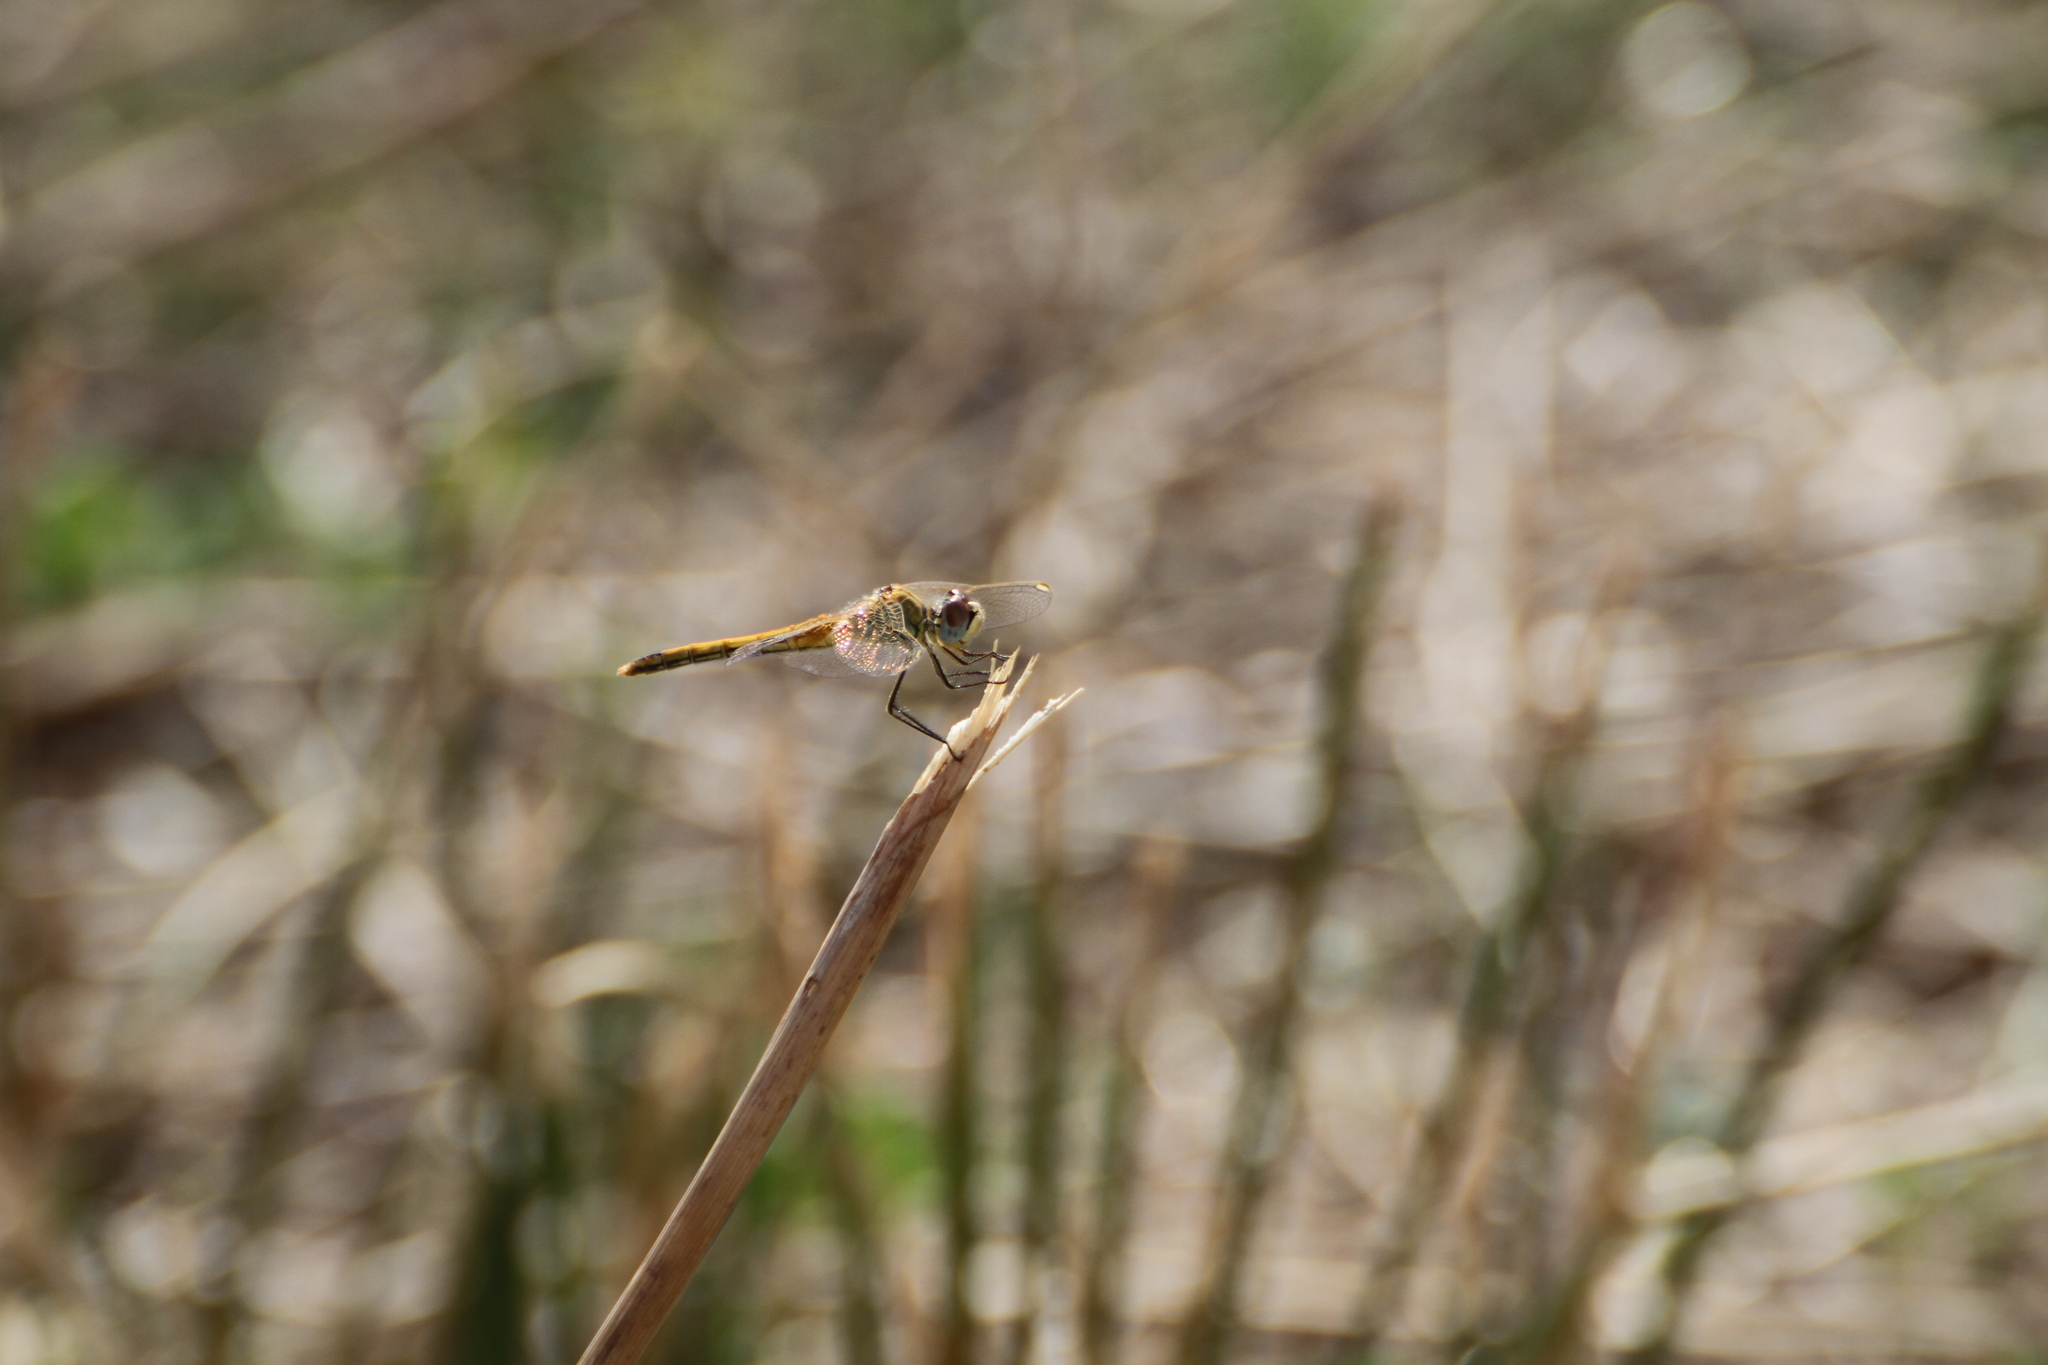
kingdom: Animalia
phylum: Arthropoda
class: Insecta
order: Odonata
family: Libellulidae
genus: Sympetrum
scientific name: Sympetrum fonscolombii
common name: Red-veined darter
